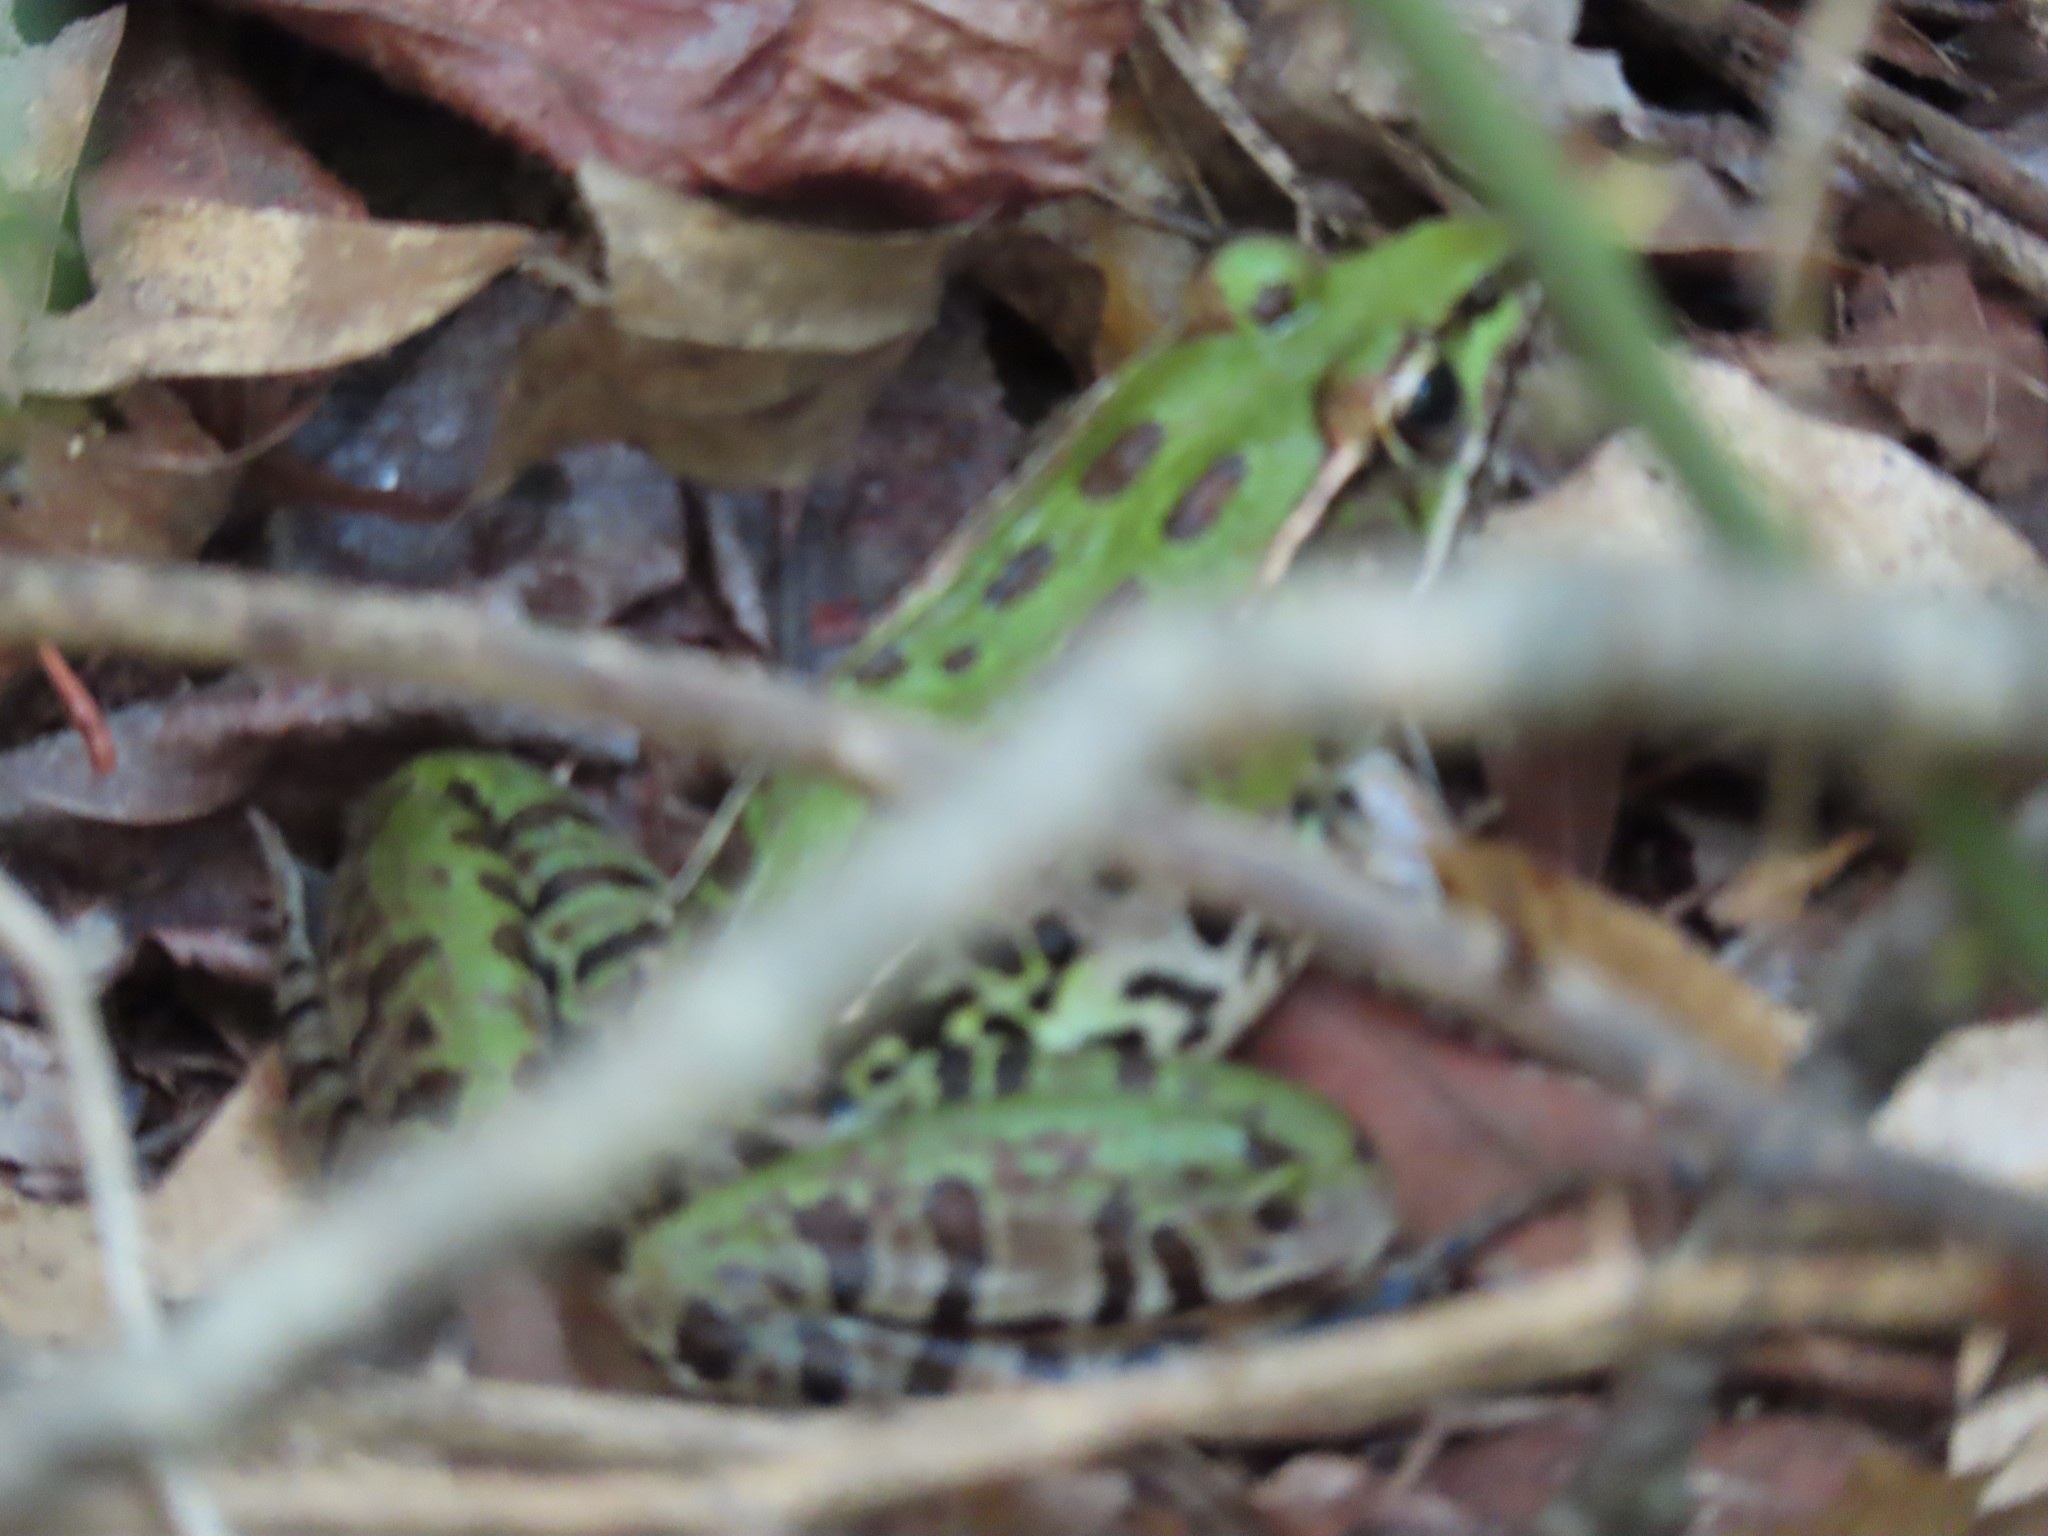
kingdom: Animalia
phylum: Chordata
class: Amphibia
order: Anura
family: Ranidae
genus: Lithobates
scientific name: Lithobates sphenocephalus
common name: Southern leopard frog
